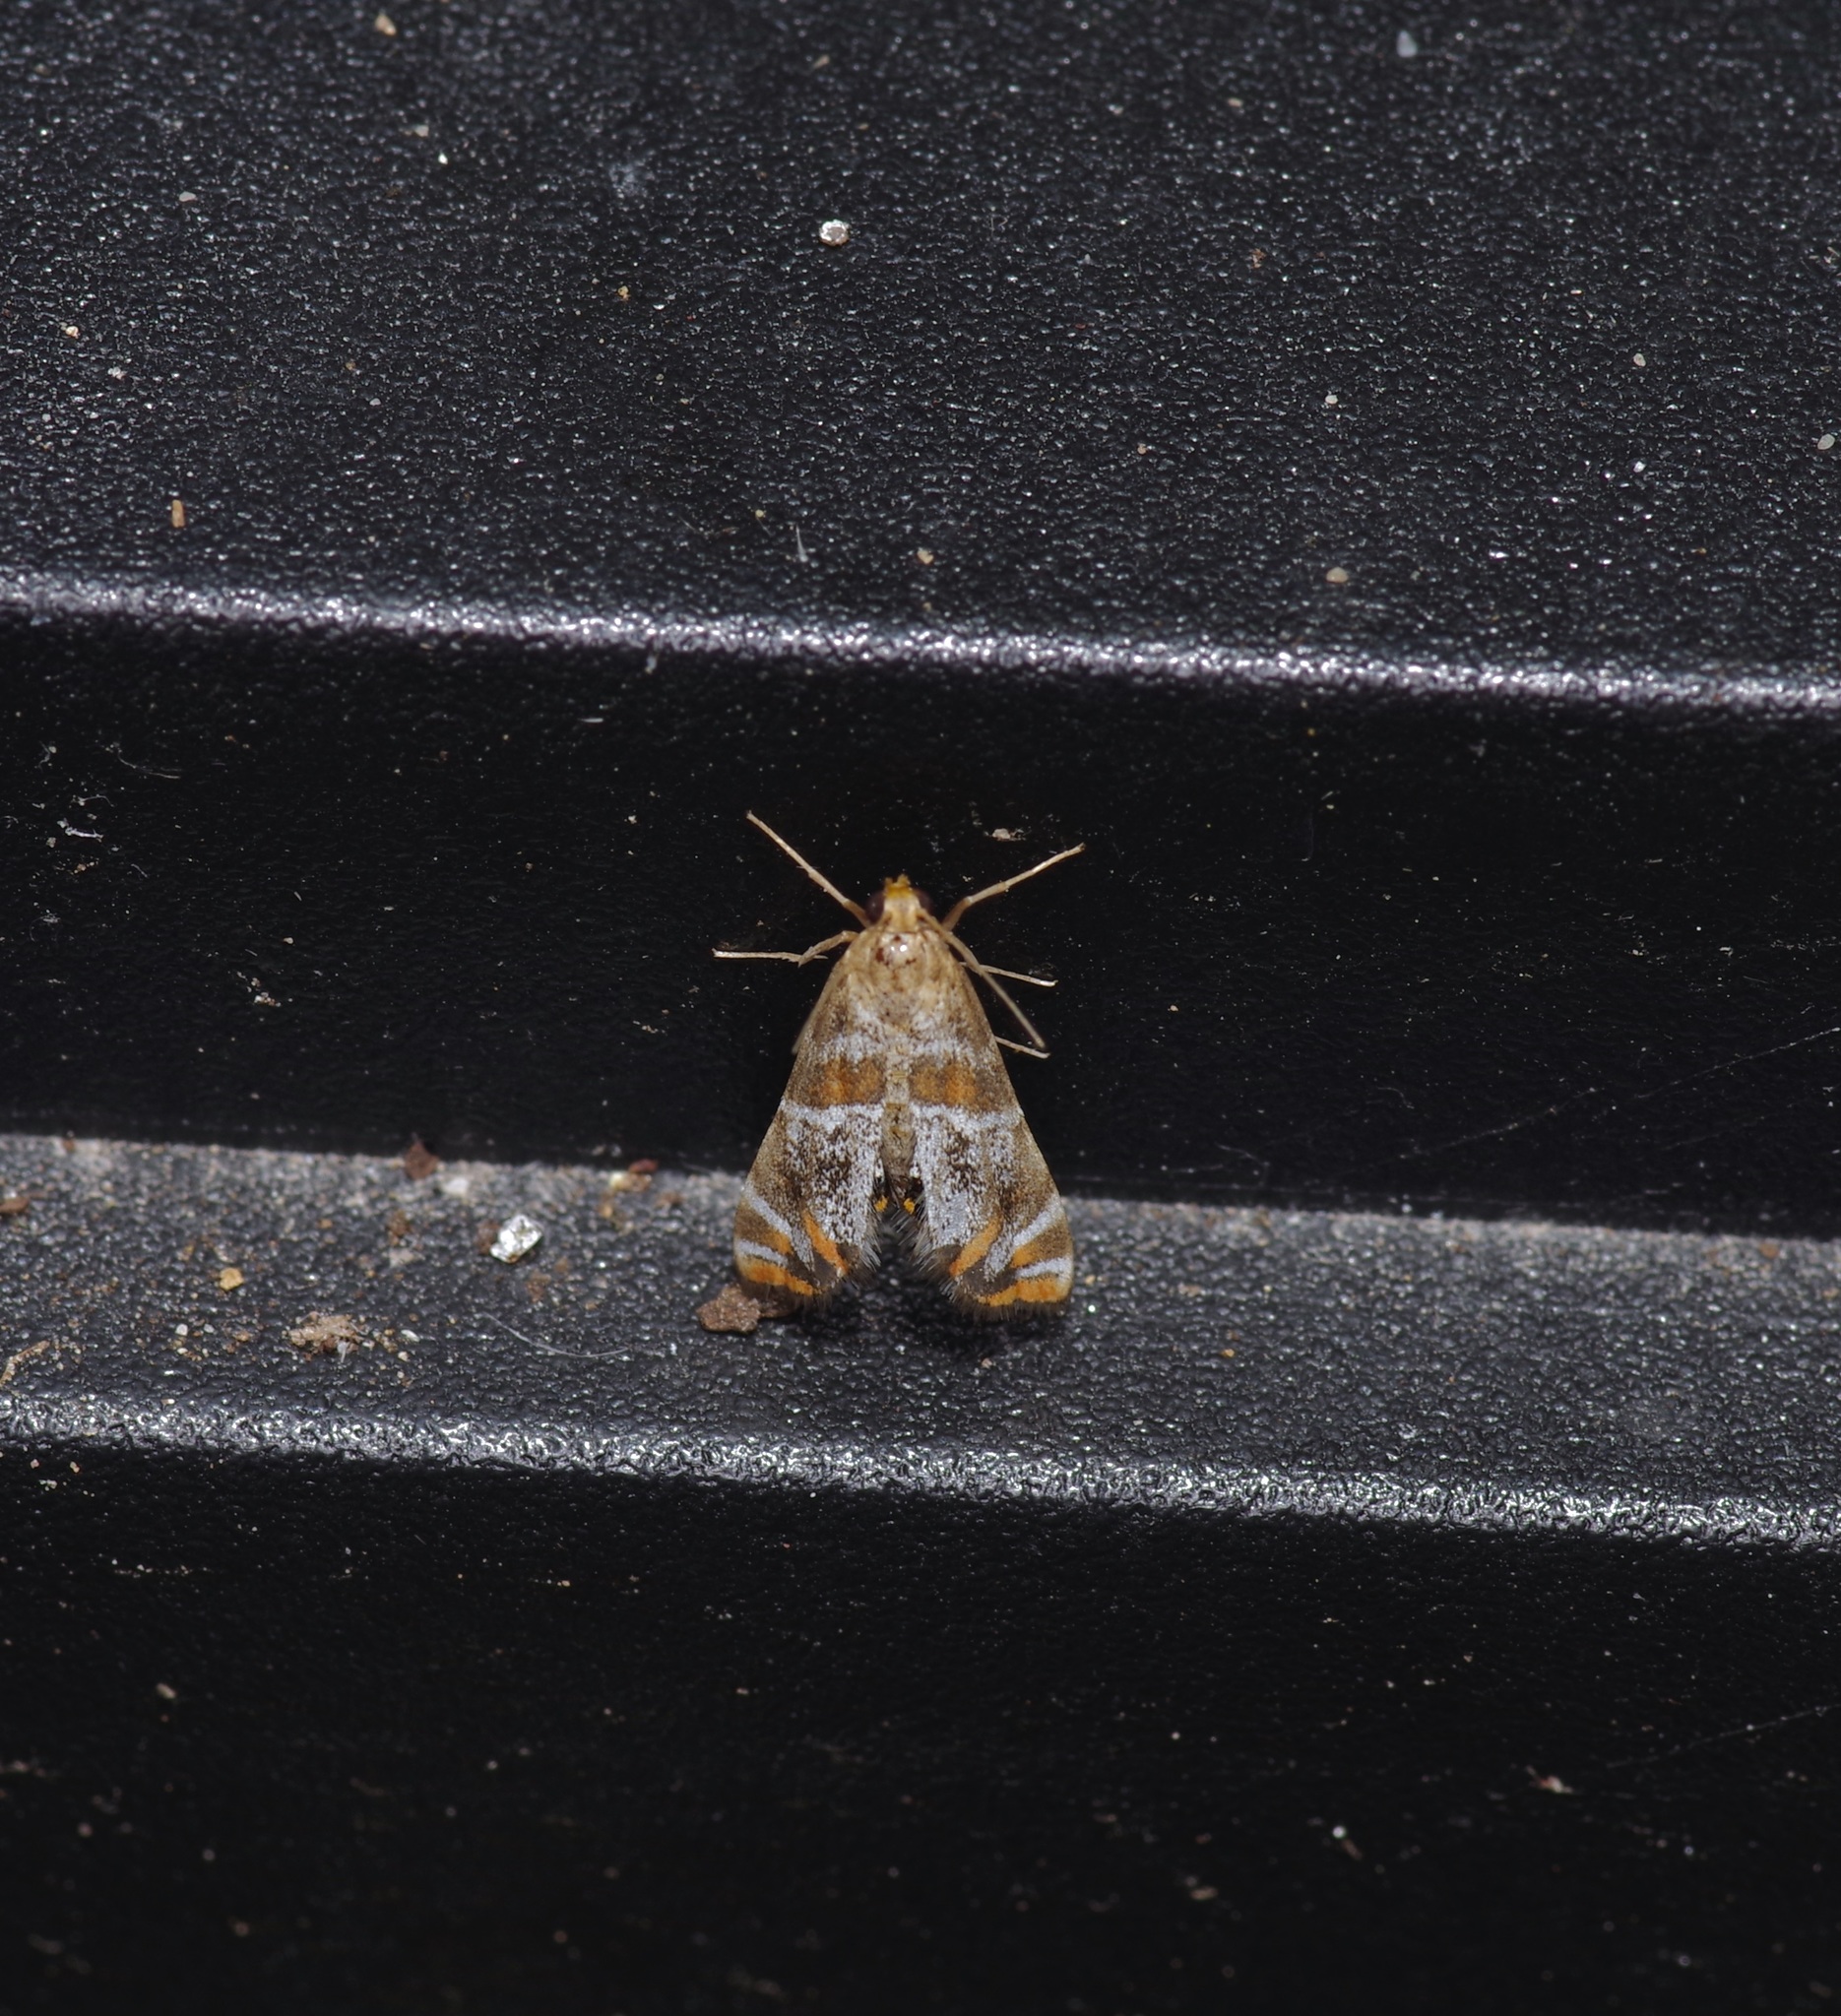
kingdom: Animalia
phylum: Arthropoda
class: Insecta
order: Lepidoptera
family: Crambidae
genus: Petrophila
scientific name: Petrophila jaliscalis
